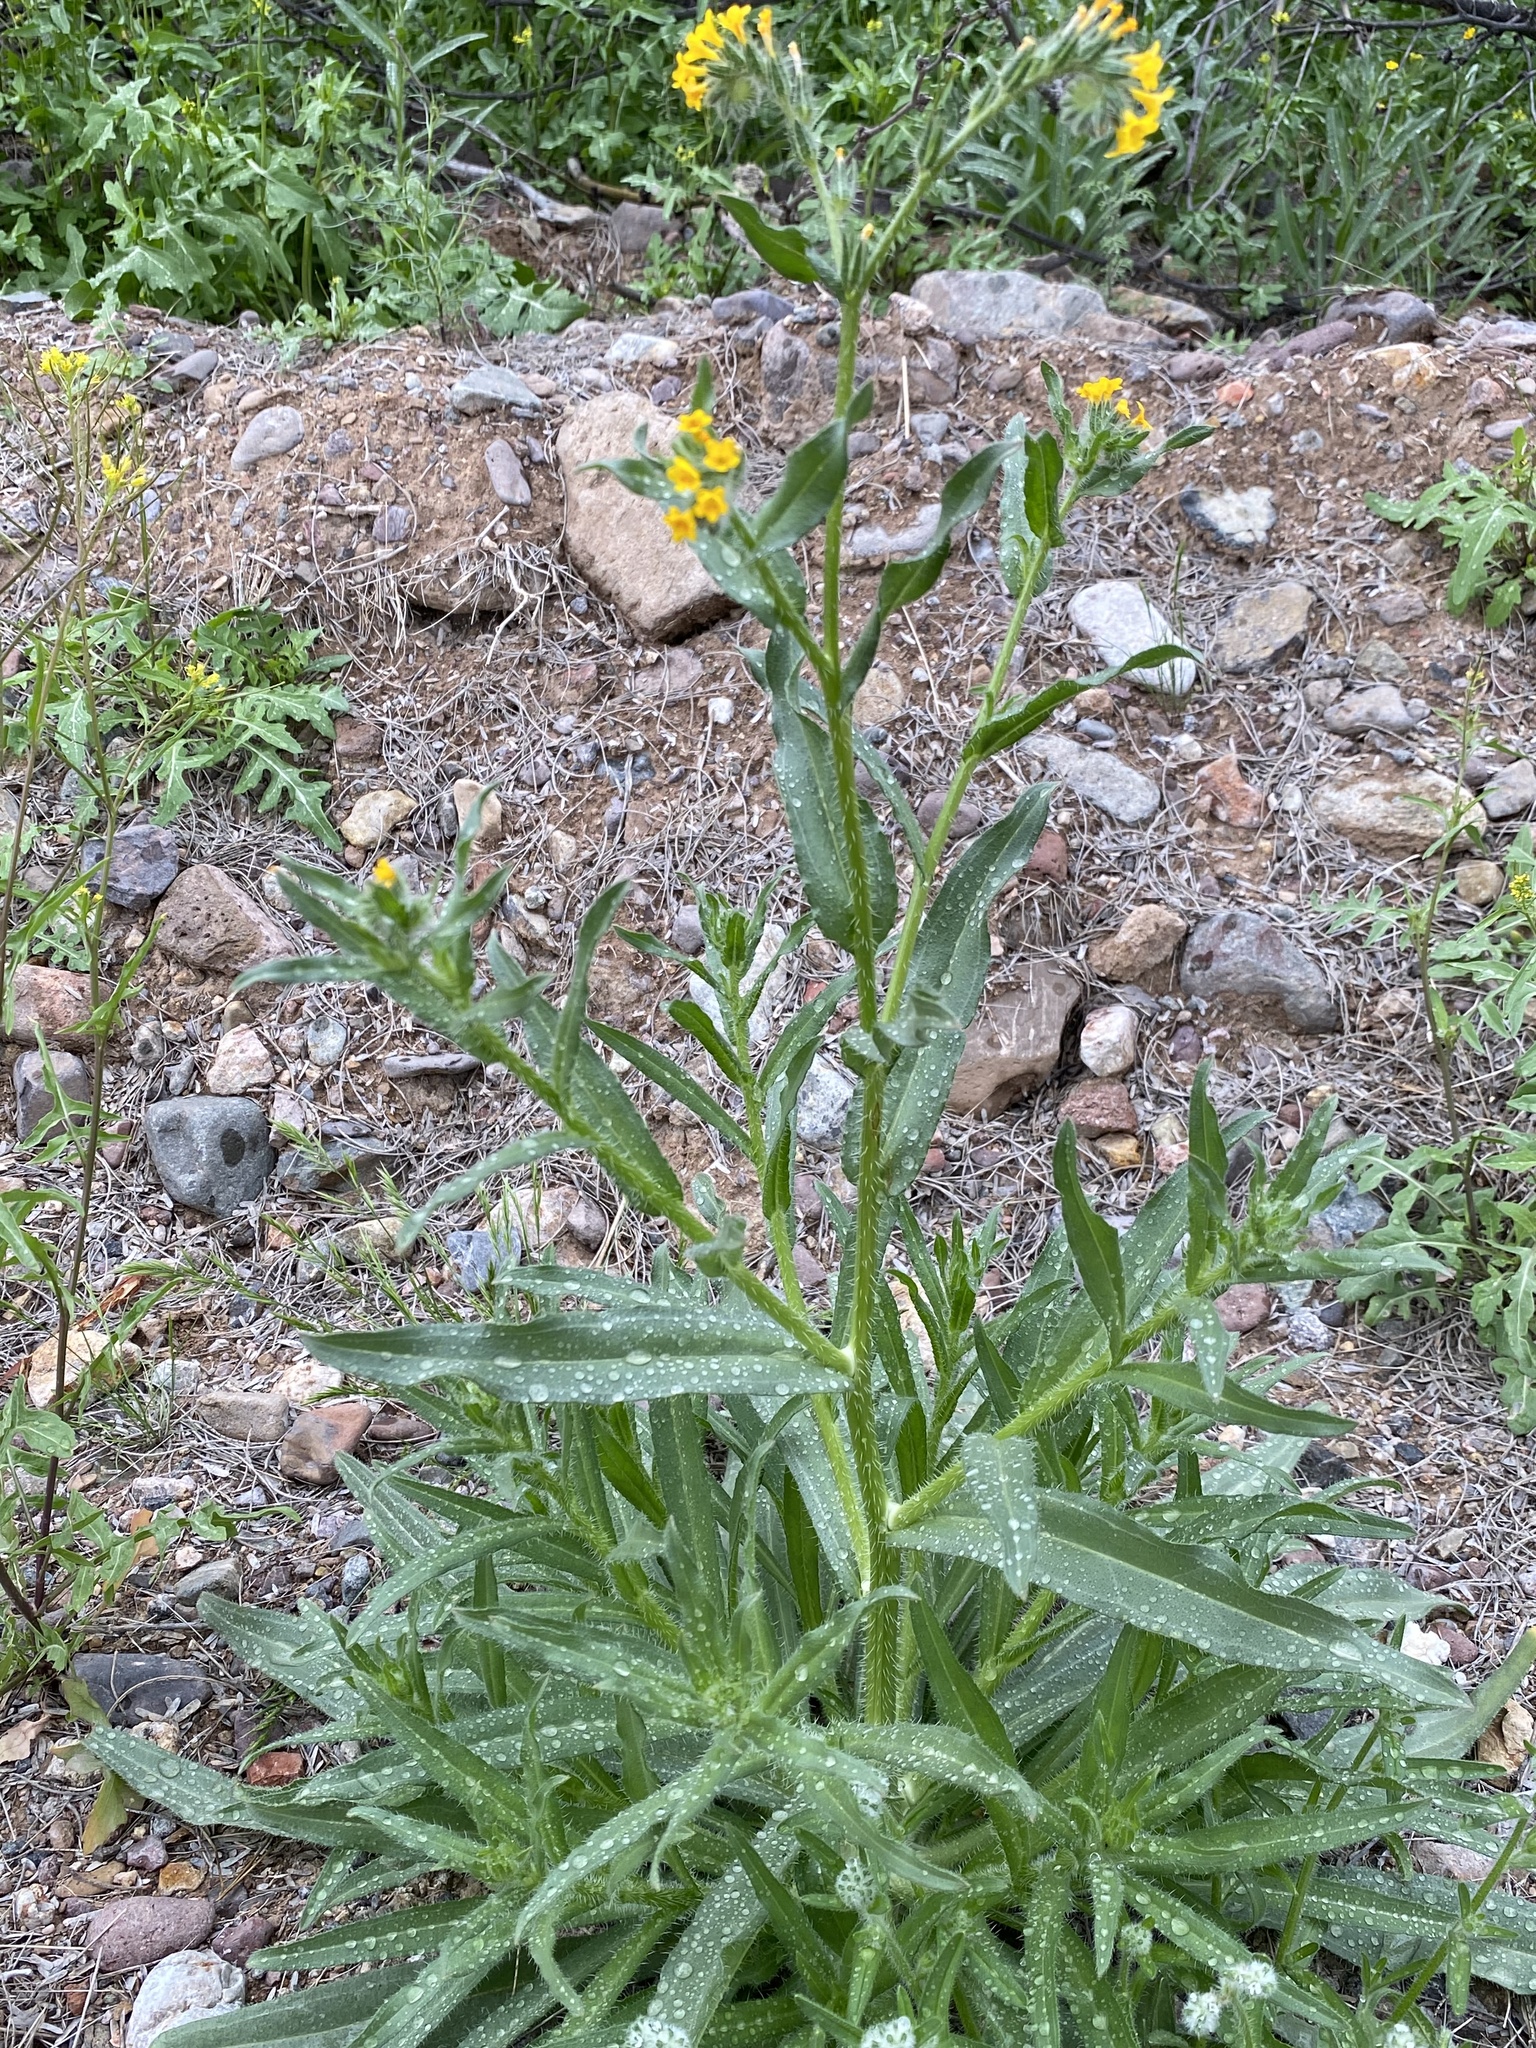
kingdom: Plantae
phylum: Tracheophyta
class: Magnoliopsida
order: Boraginales
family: Boraginaceae
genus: Amsinckia
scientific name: Amsinckia menziesii
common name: Menzies' fiddleneck
